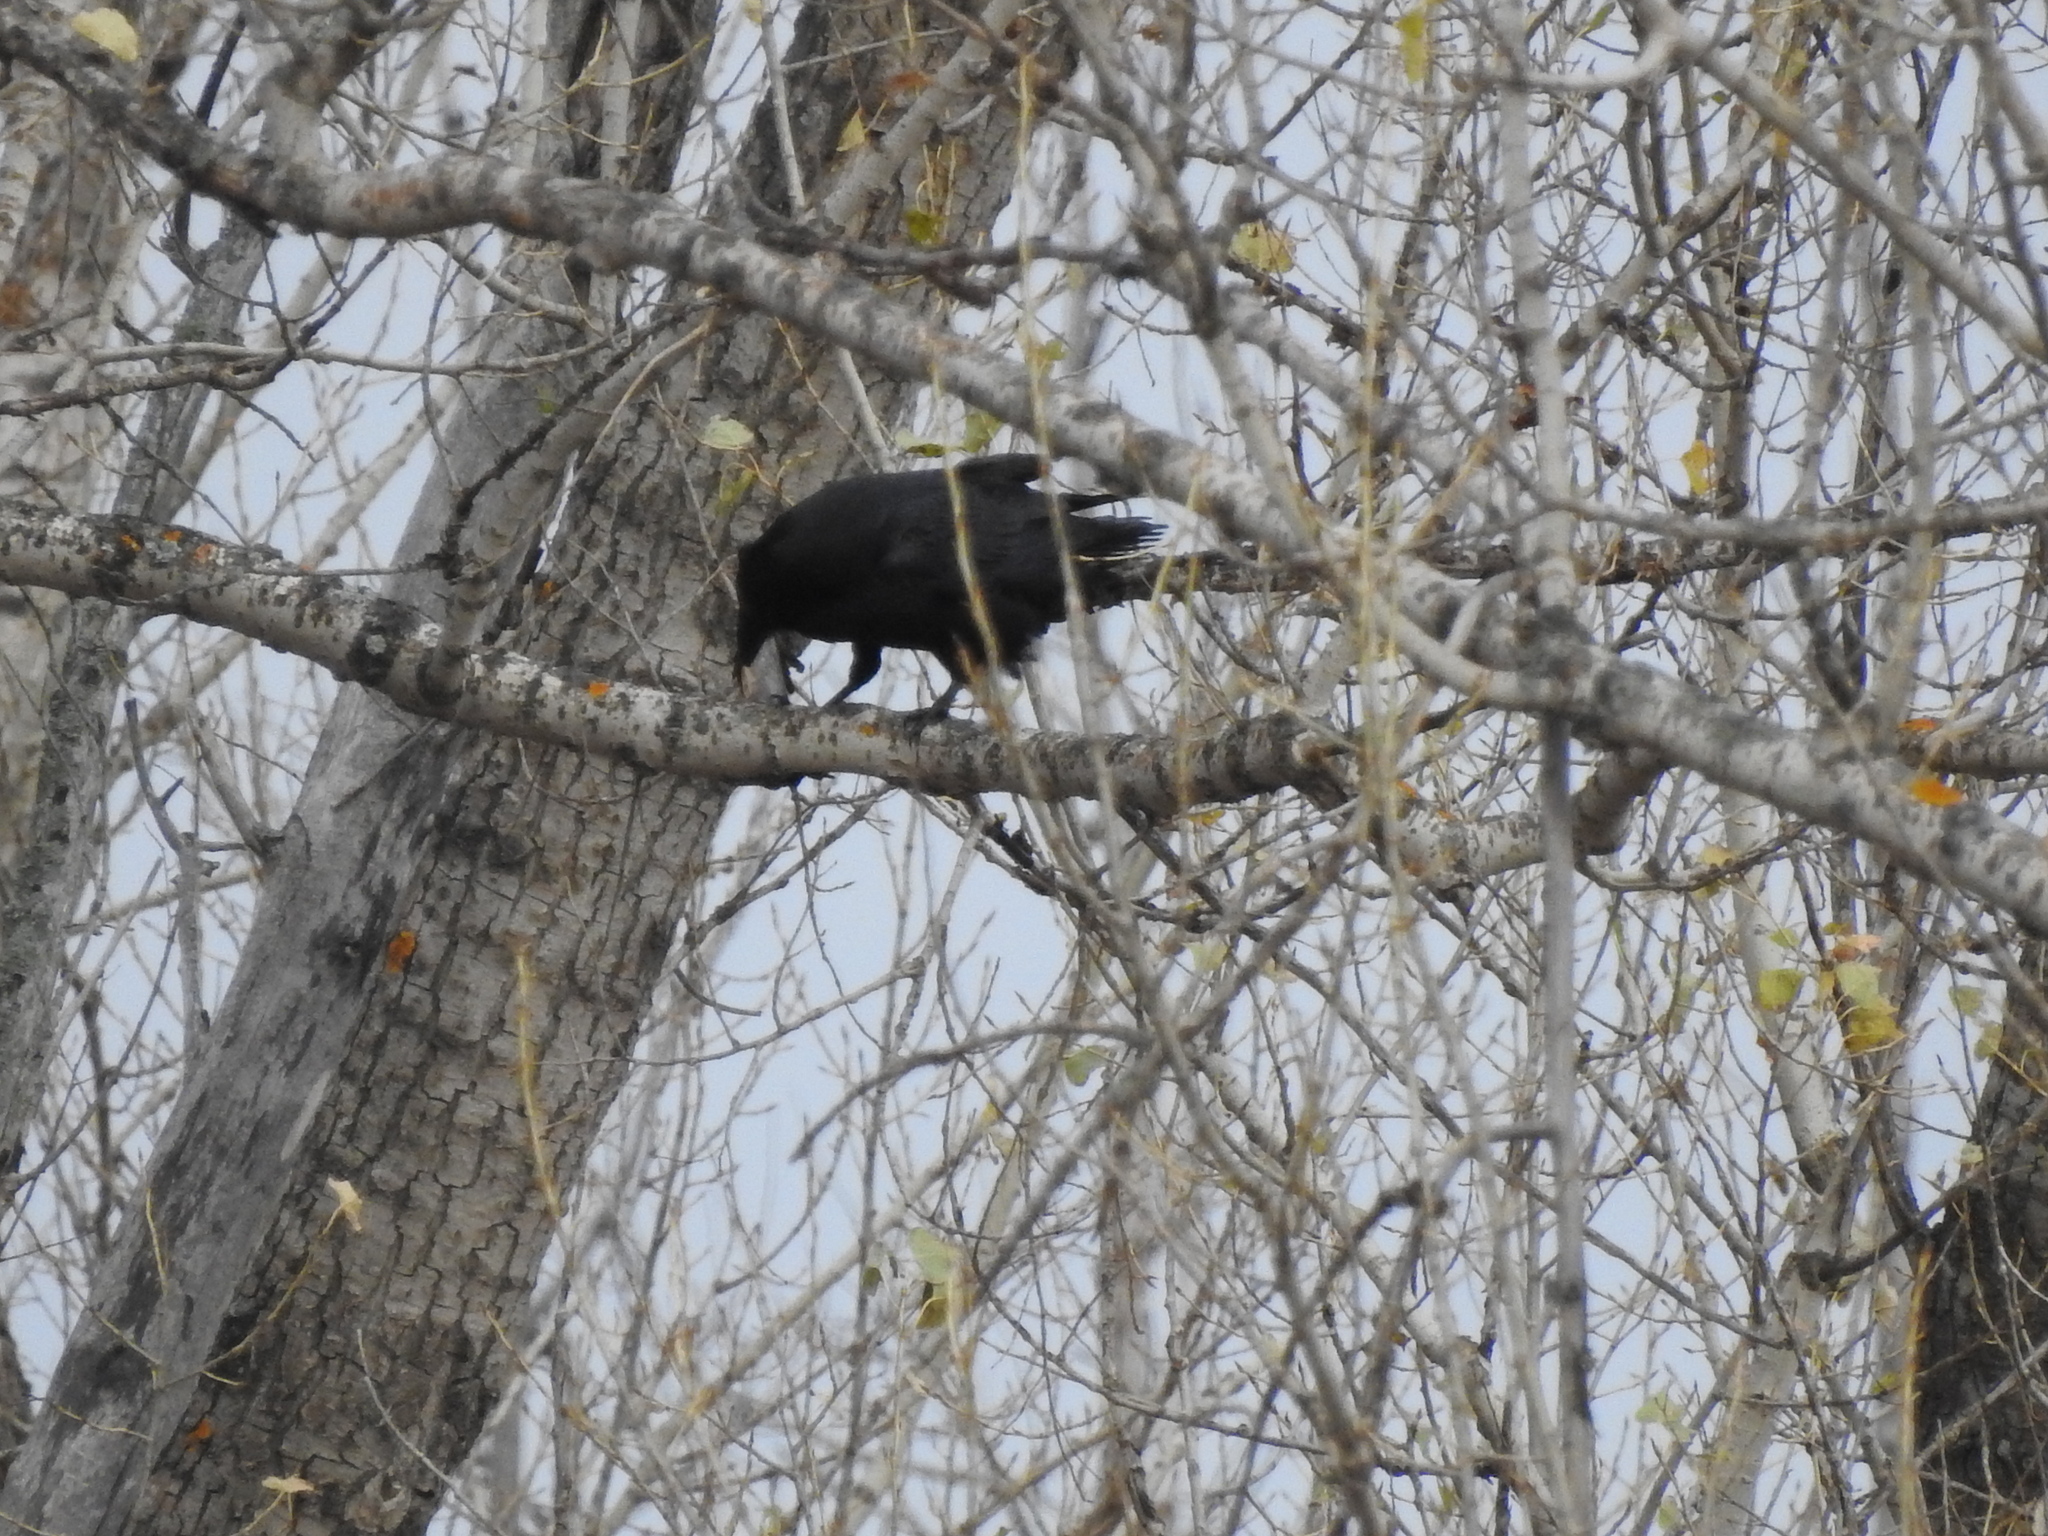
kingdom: Animalia
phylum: Chordata
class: Aves
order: Passeriformes
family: Corvidae
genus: Corvus
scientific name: Corvus corax
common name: Common raven
